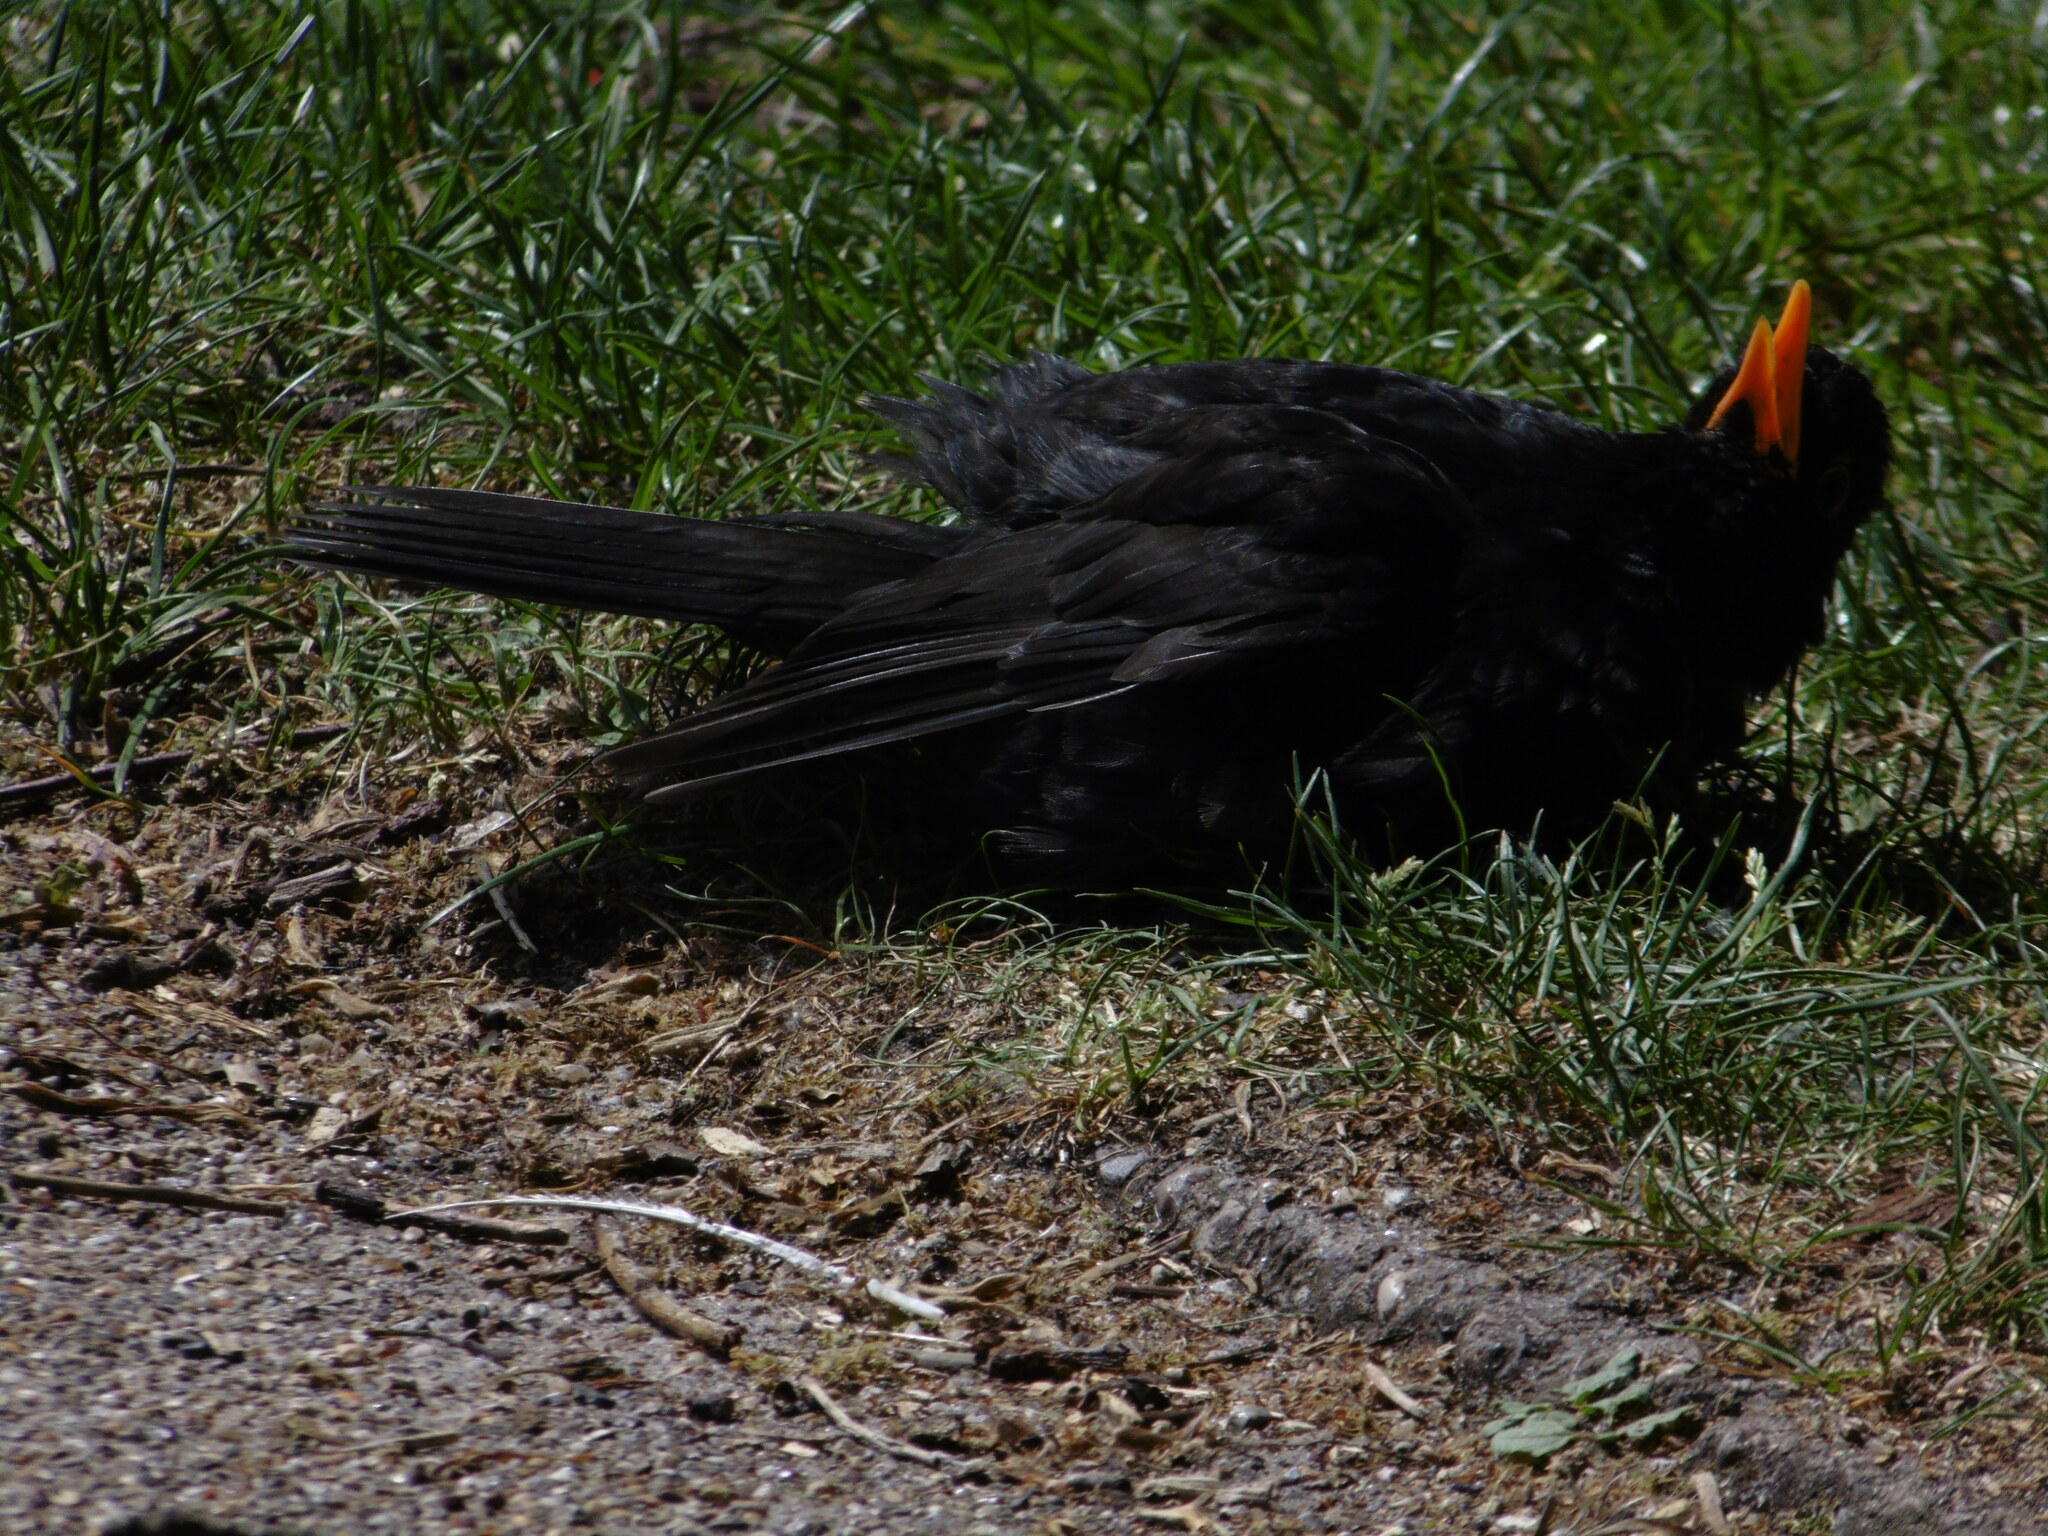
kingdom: Animalia
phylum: Chordata
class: Aves
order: Passeriformes
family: Turdidae
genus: Turdus
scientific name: Turdus merula
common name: Common blackbird
